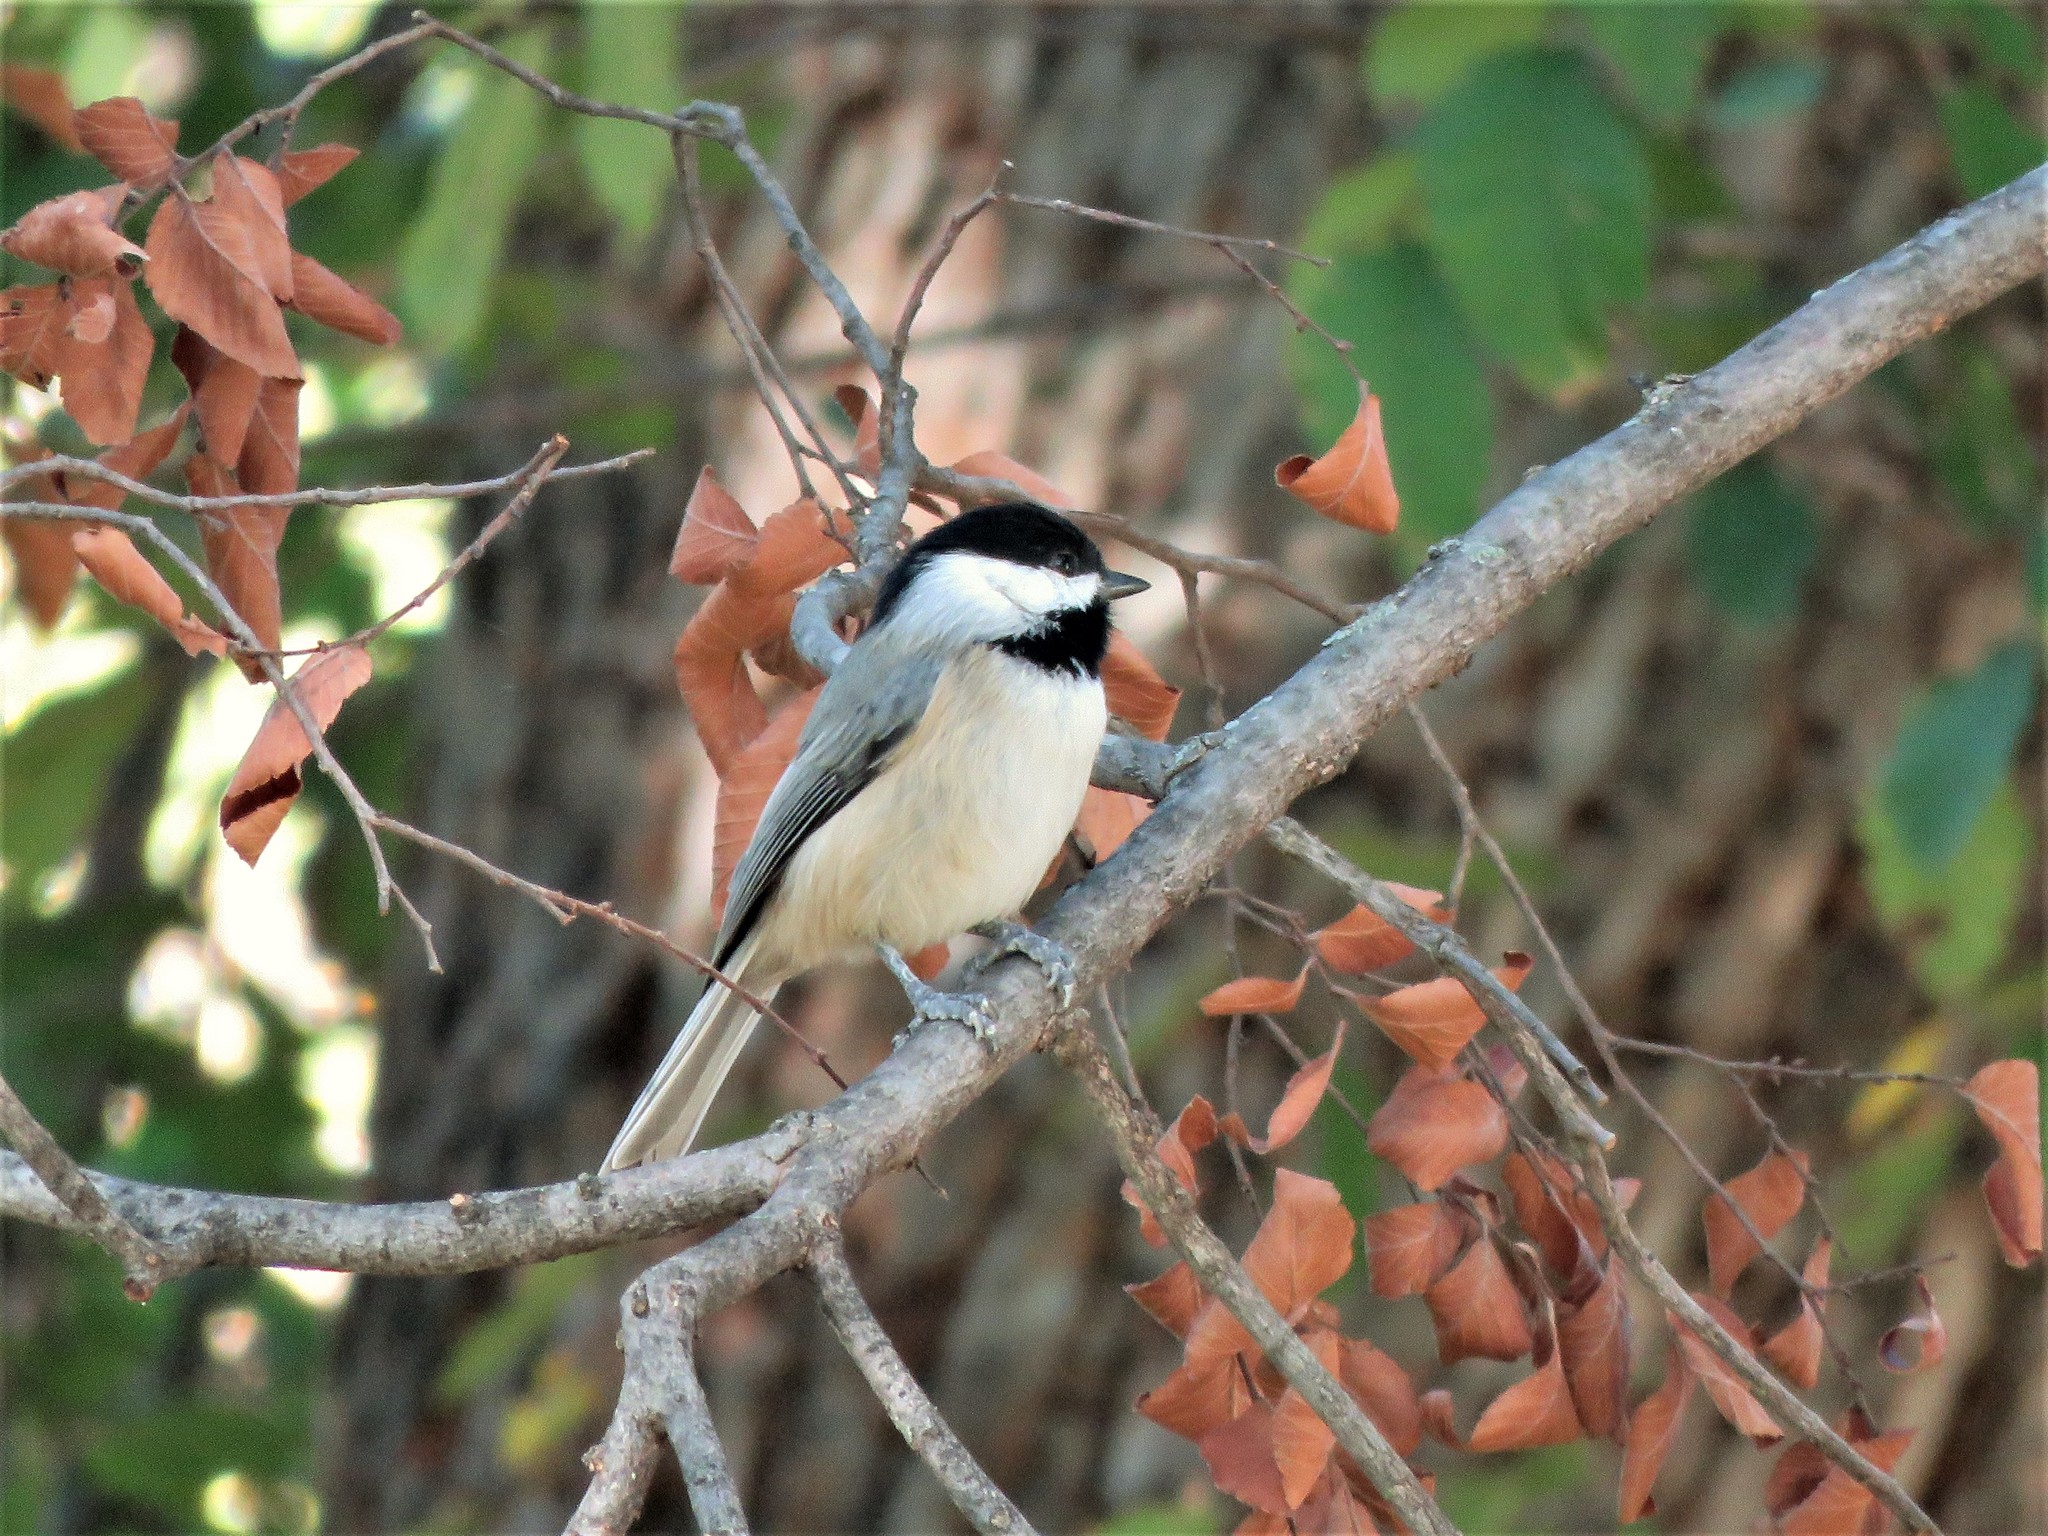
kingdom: Animalia
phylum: Chordata
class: Aves
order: Passeriformes
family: Paridae
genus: Poecile
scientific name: Poecile carolinensis
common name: Carolina chickadee
